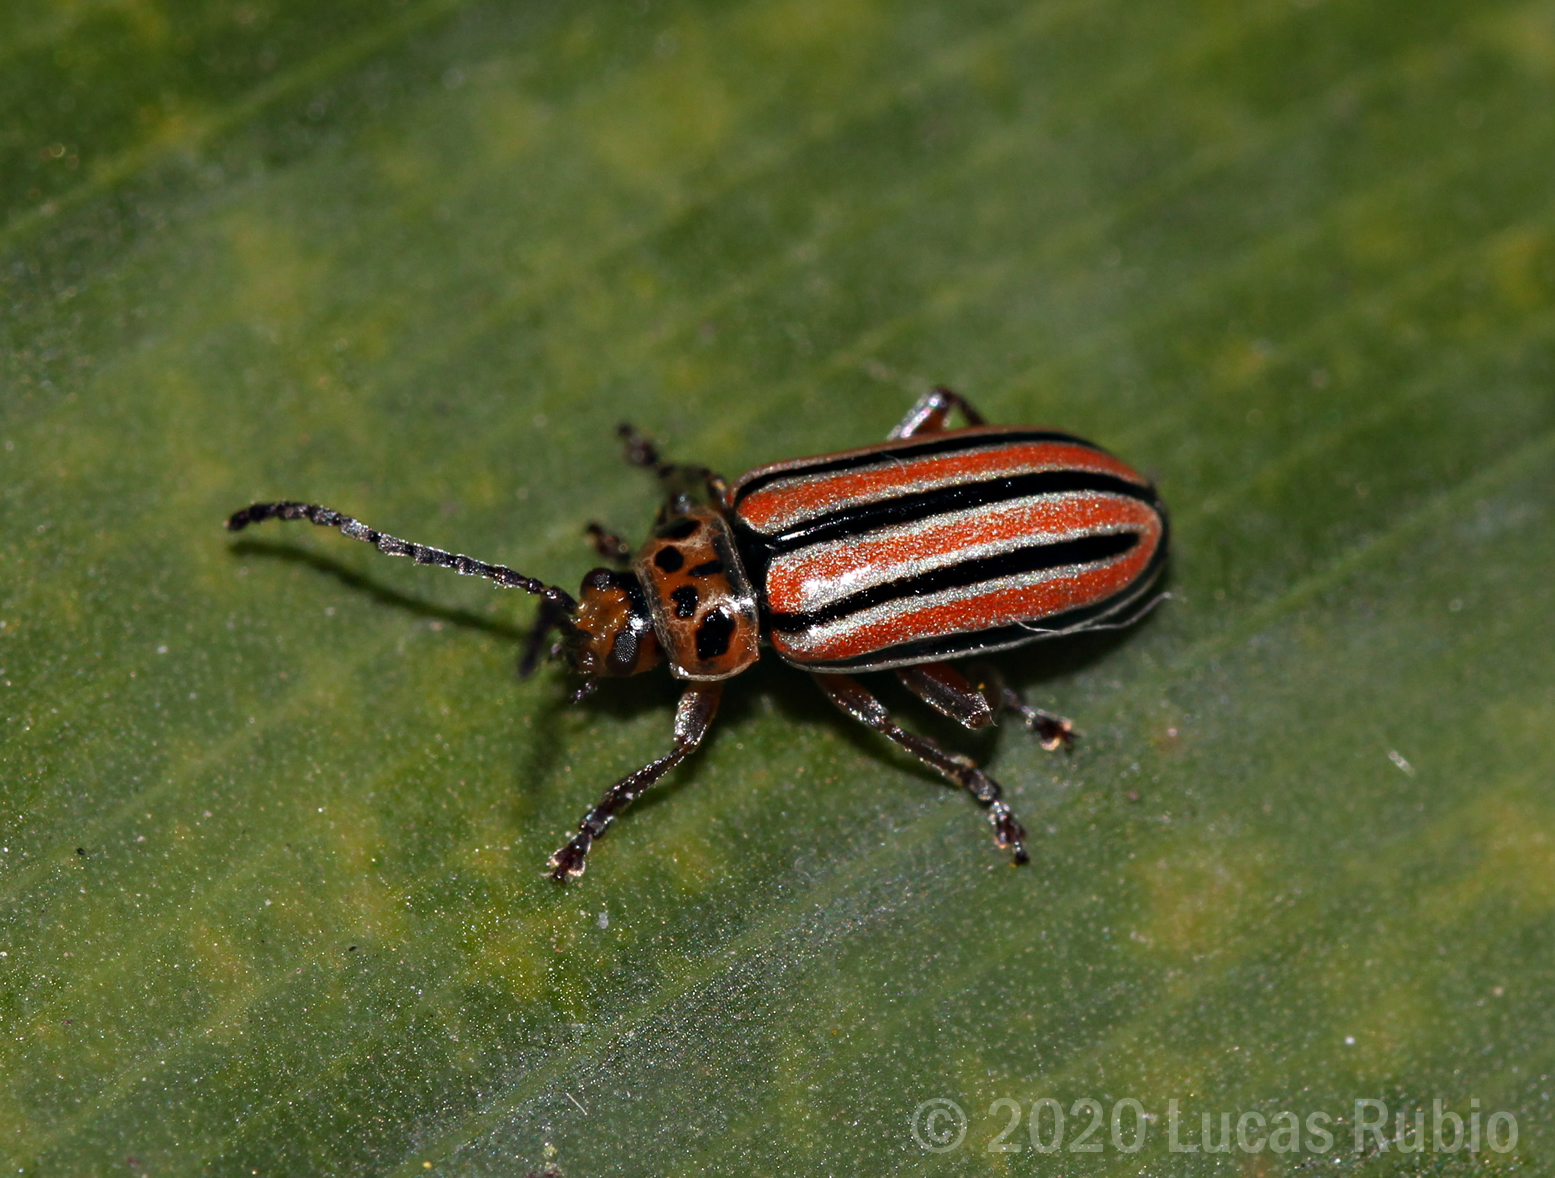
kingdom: Animalia
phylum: Arthropoda
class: Insecta
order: Coleoptera
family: Chrysomelidae
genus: Disonycha
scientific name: Disonycha
